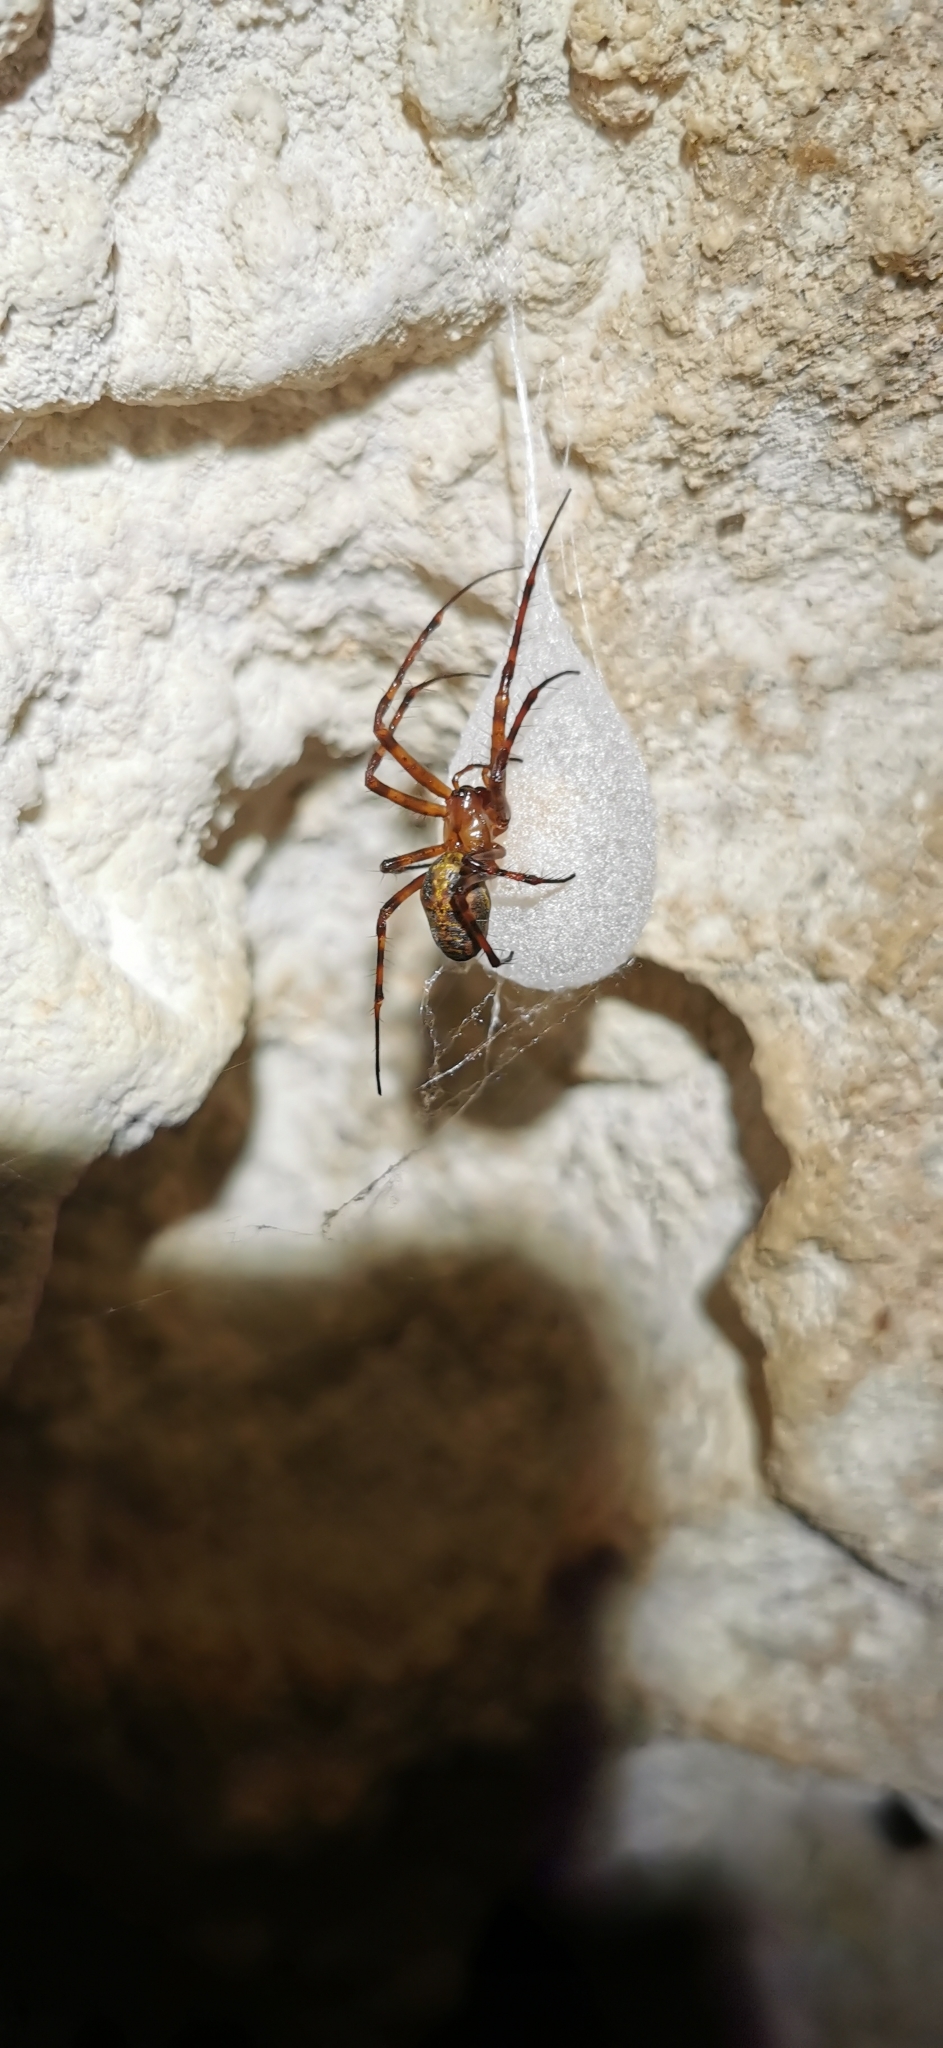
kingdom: Animalia
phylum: Arthropoda
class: Arachnida
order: Araneae
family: Tetragnathidae
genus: Meta
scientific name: Meta menardi
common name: Cave spider
